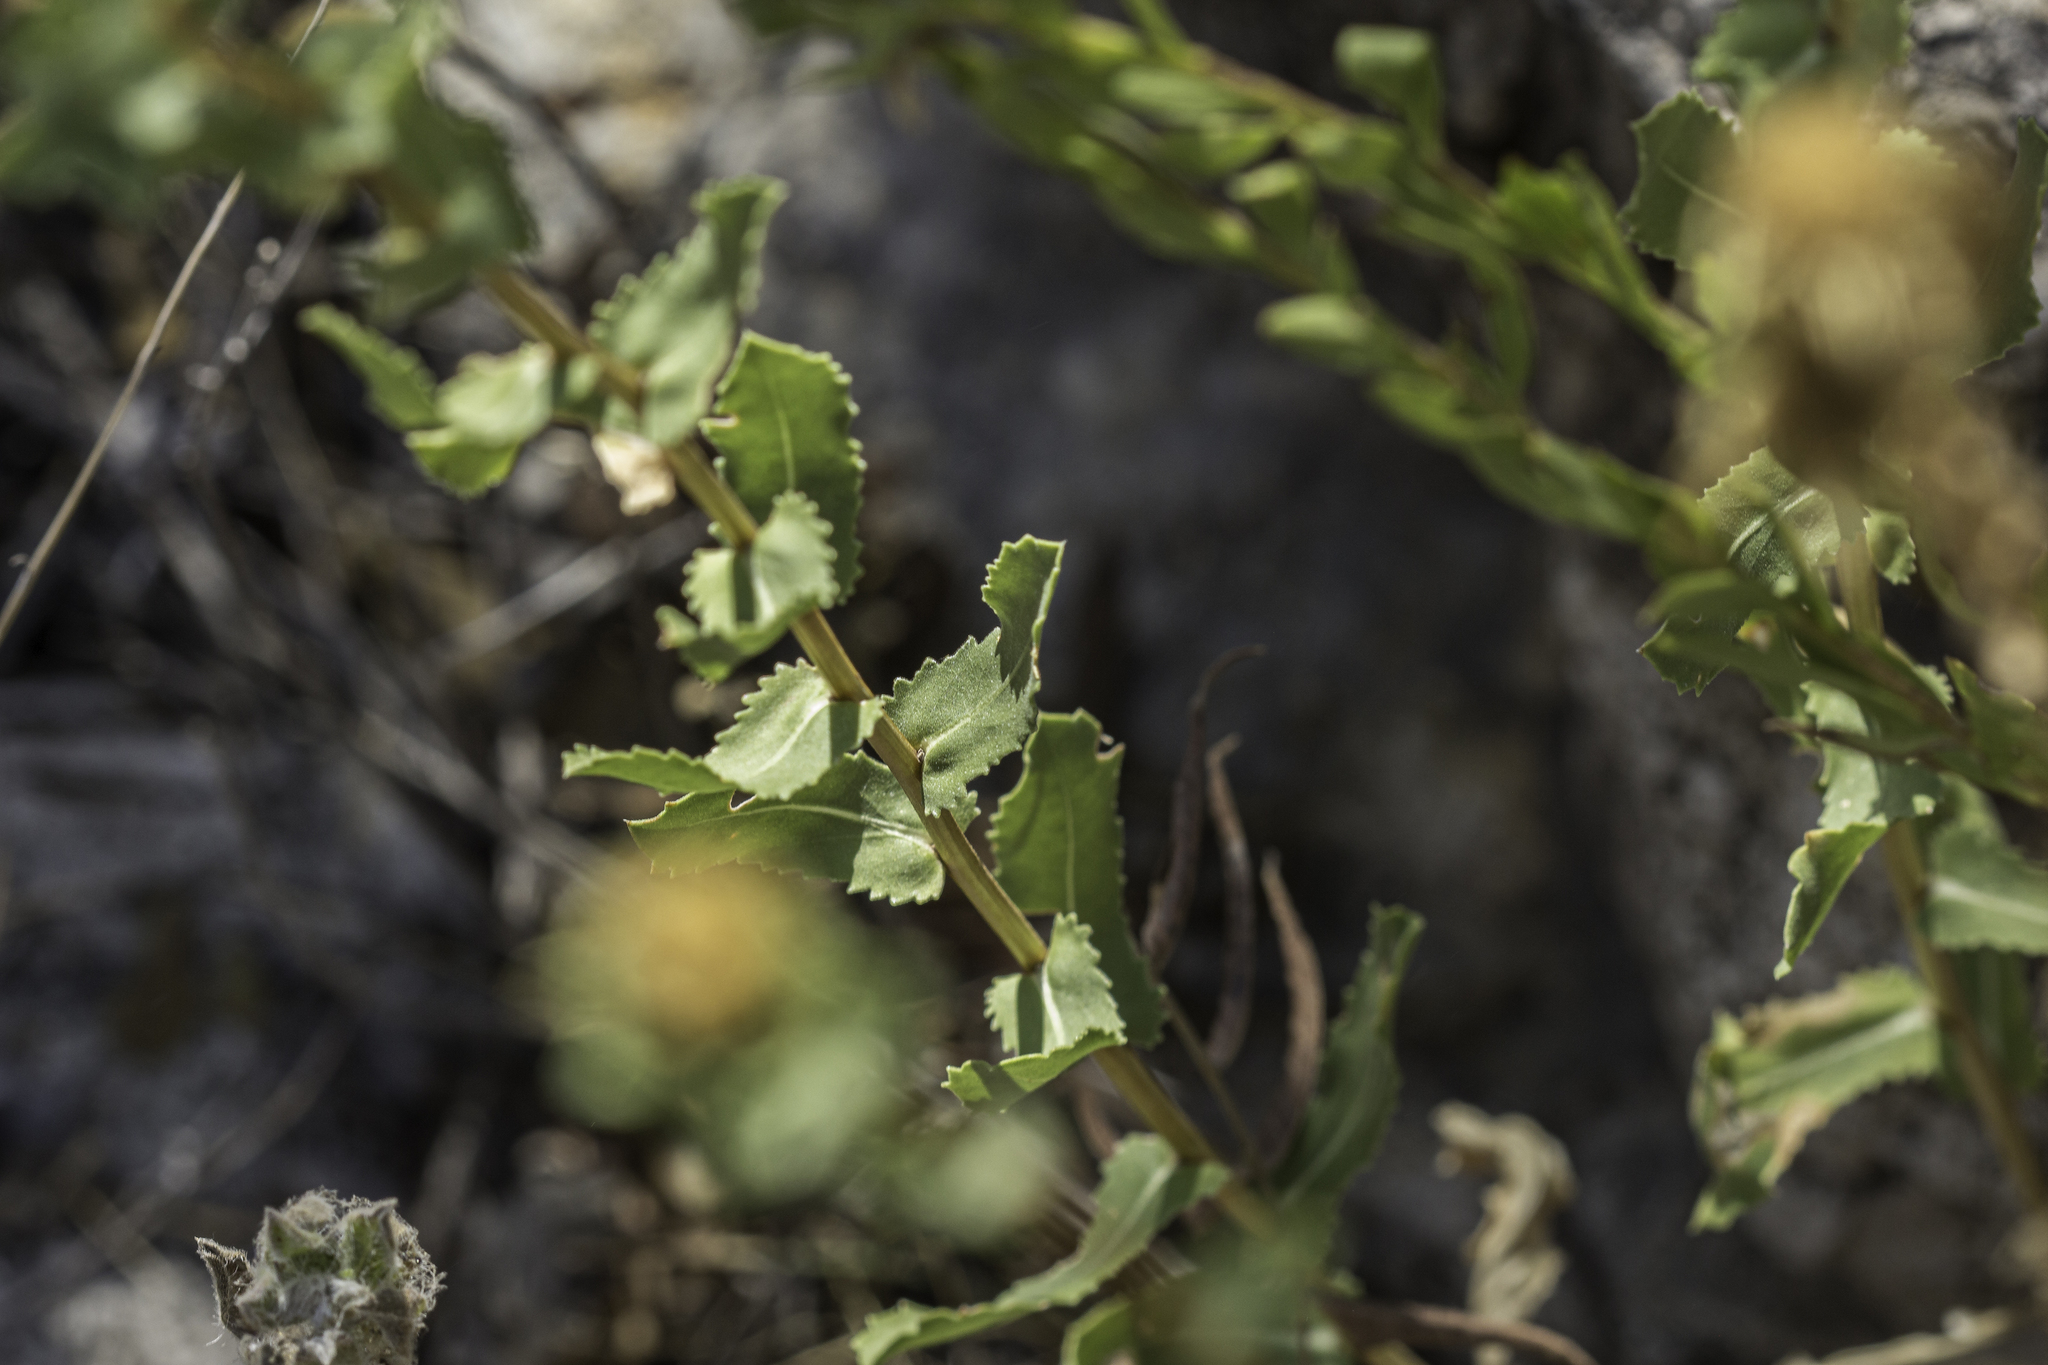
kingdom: Plantae
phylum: Tracheophyta
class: Magnoliopsida
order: Asterales
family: Asteraceae
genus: Grindelia
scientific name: Grindelia havardii
